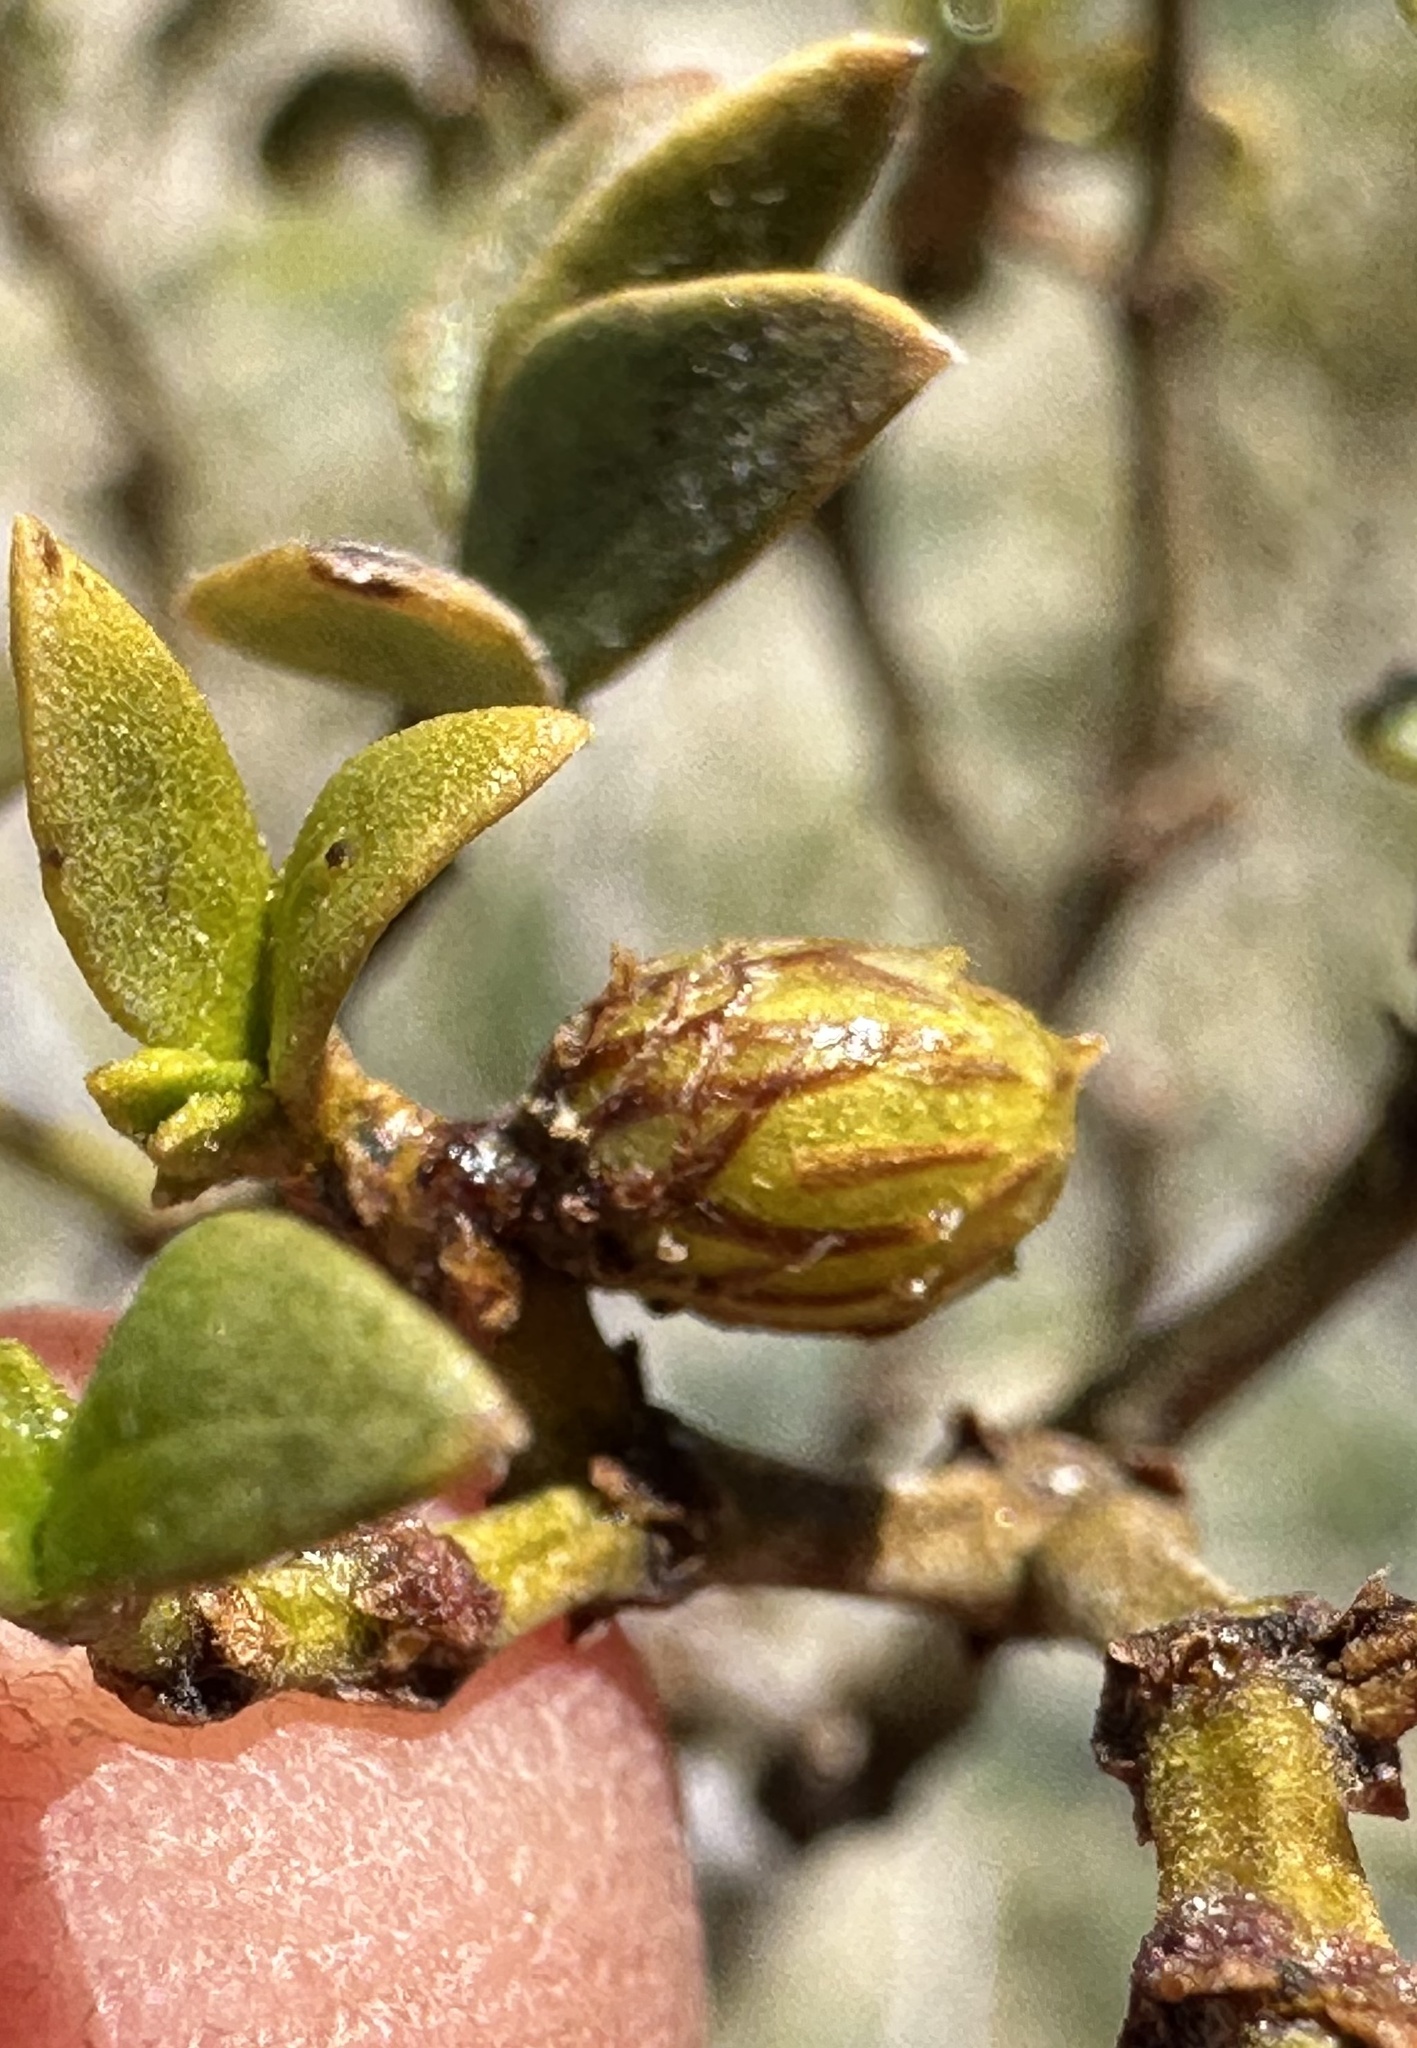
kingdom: Animalia
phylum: Arthropoda
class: Insecta
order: Diptera
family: Cecidomyiidae
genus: Asphondylia
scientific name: Asphondylia resinosa
